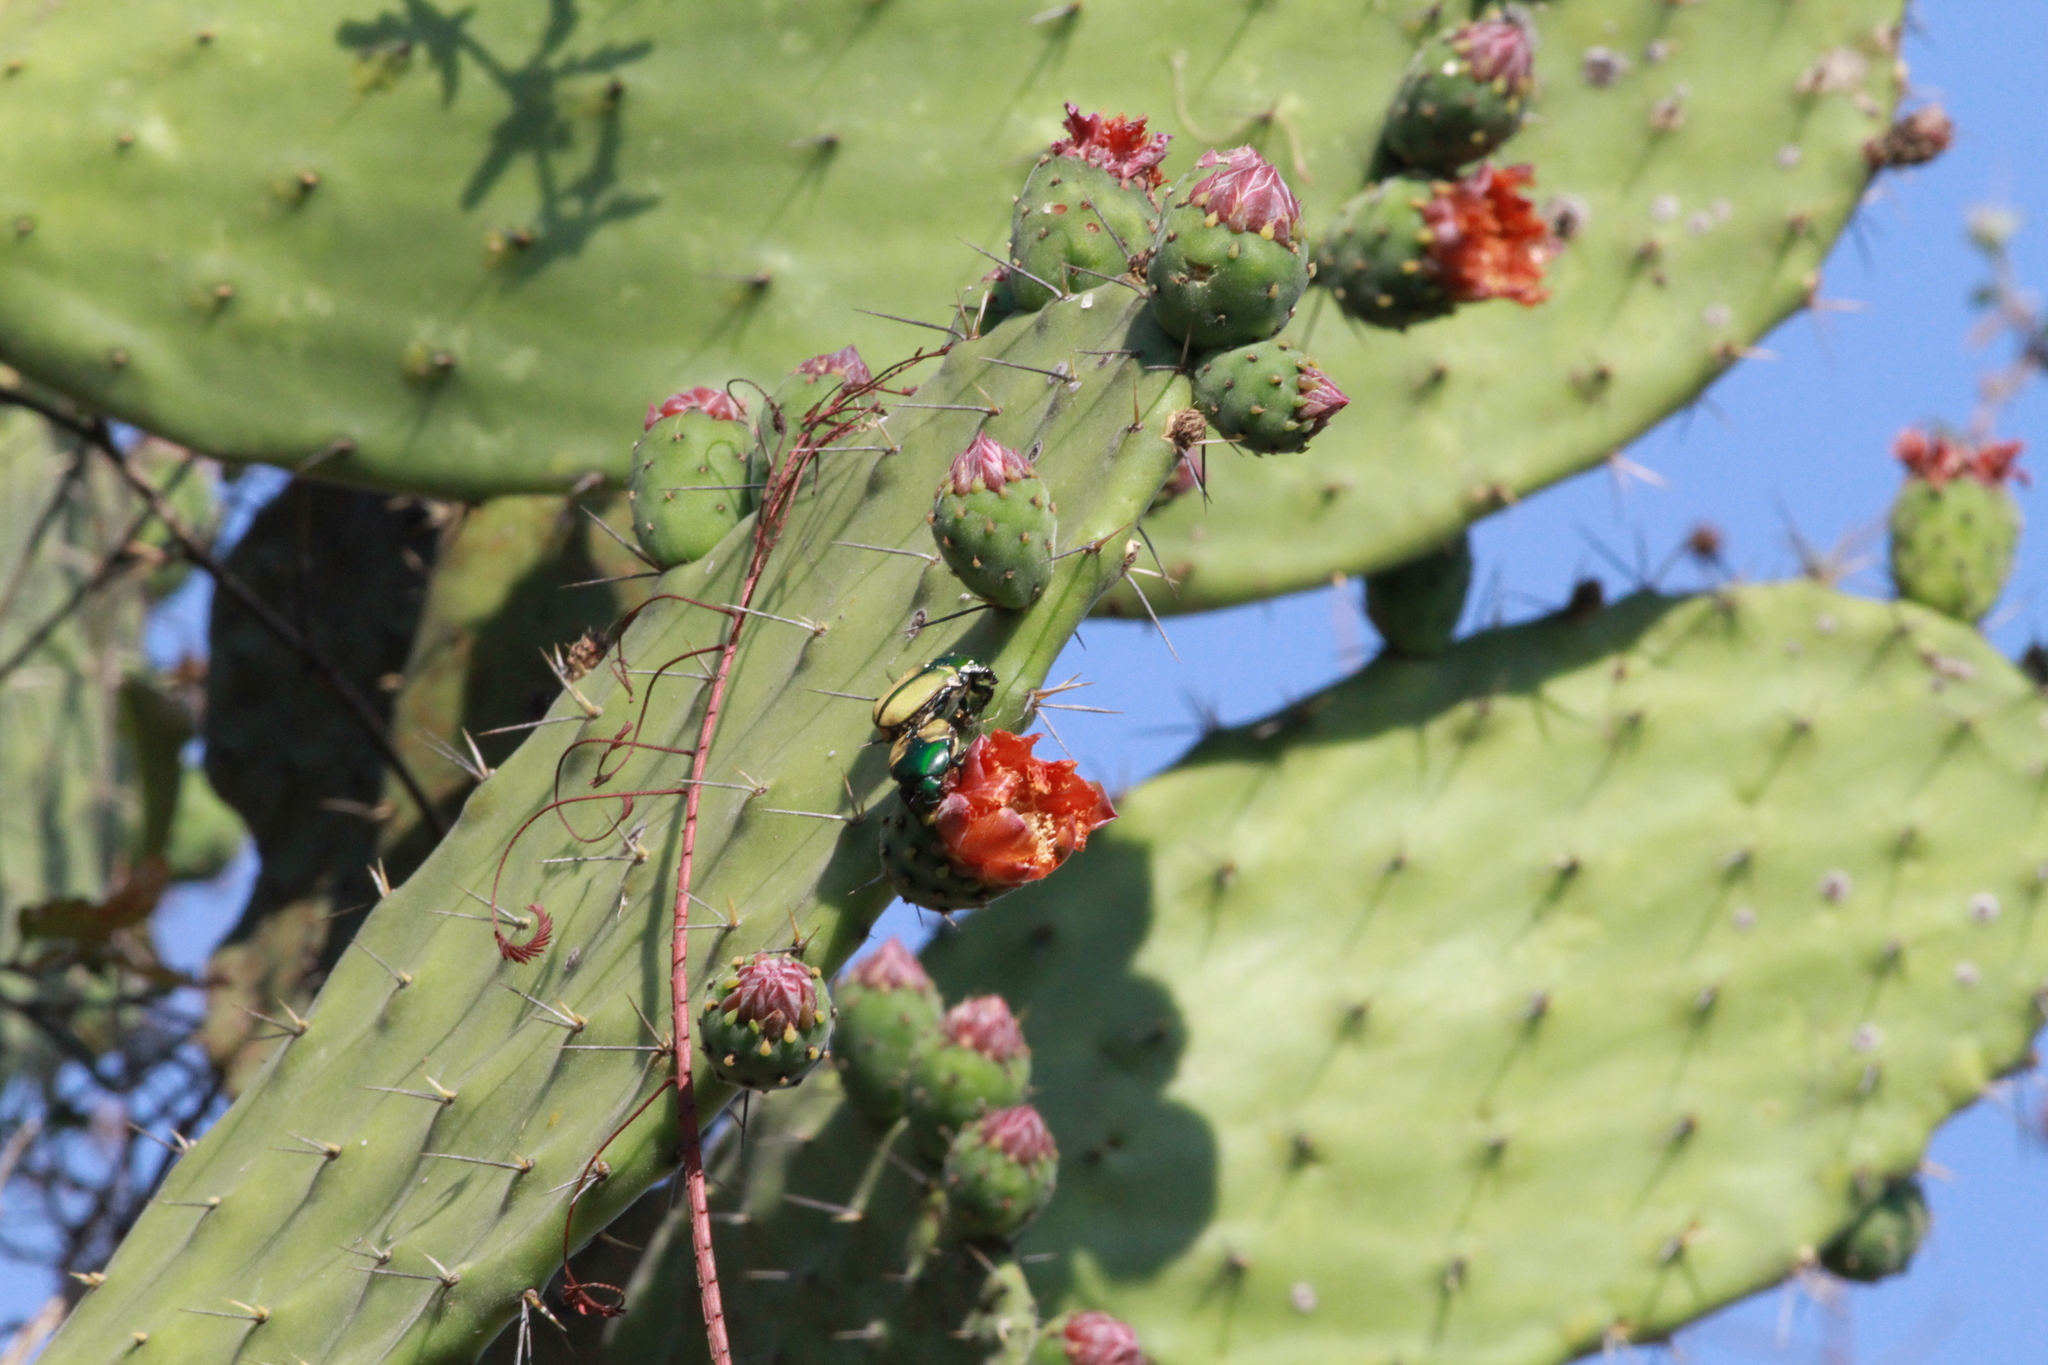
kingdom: Animalia
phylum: Arthropoda
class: Insecta
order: Coleoptera
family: Scarabaeidae
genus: Chlorixanthe
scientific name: Chlorixanthe flavoviridis
